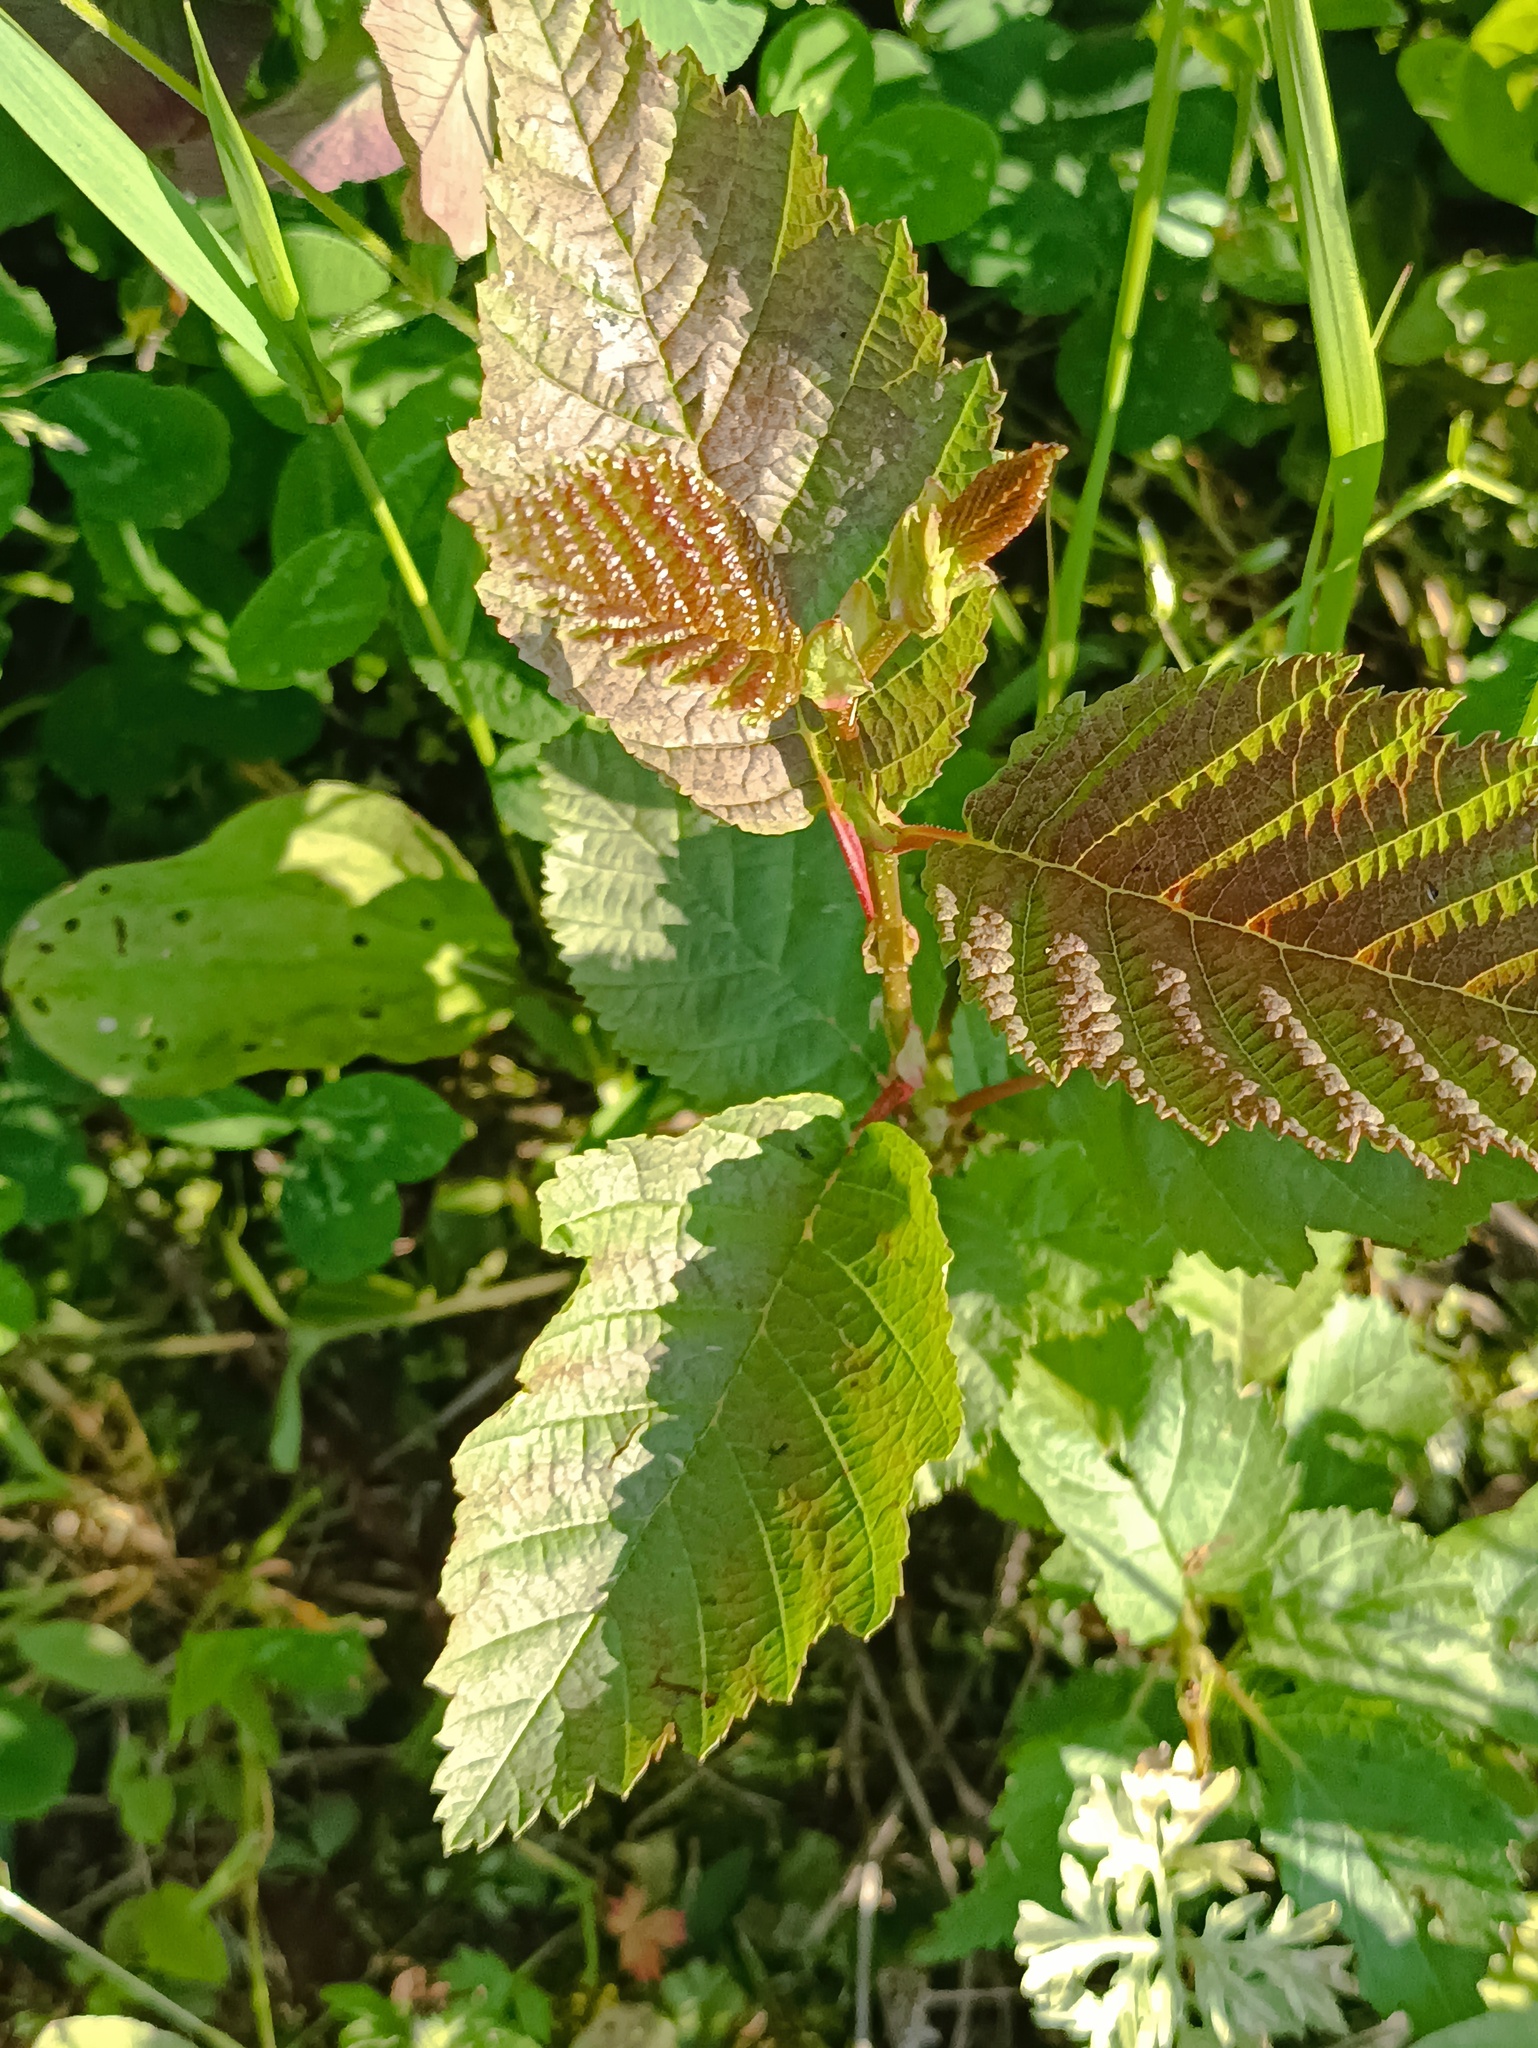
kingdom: Plantae
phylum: Tracheophyta
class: Magnoliopsida
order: Fagales
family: Betulaceae
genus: Alnus
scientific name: Alnus incana
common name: Grey alder
